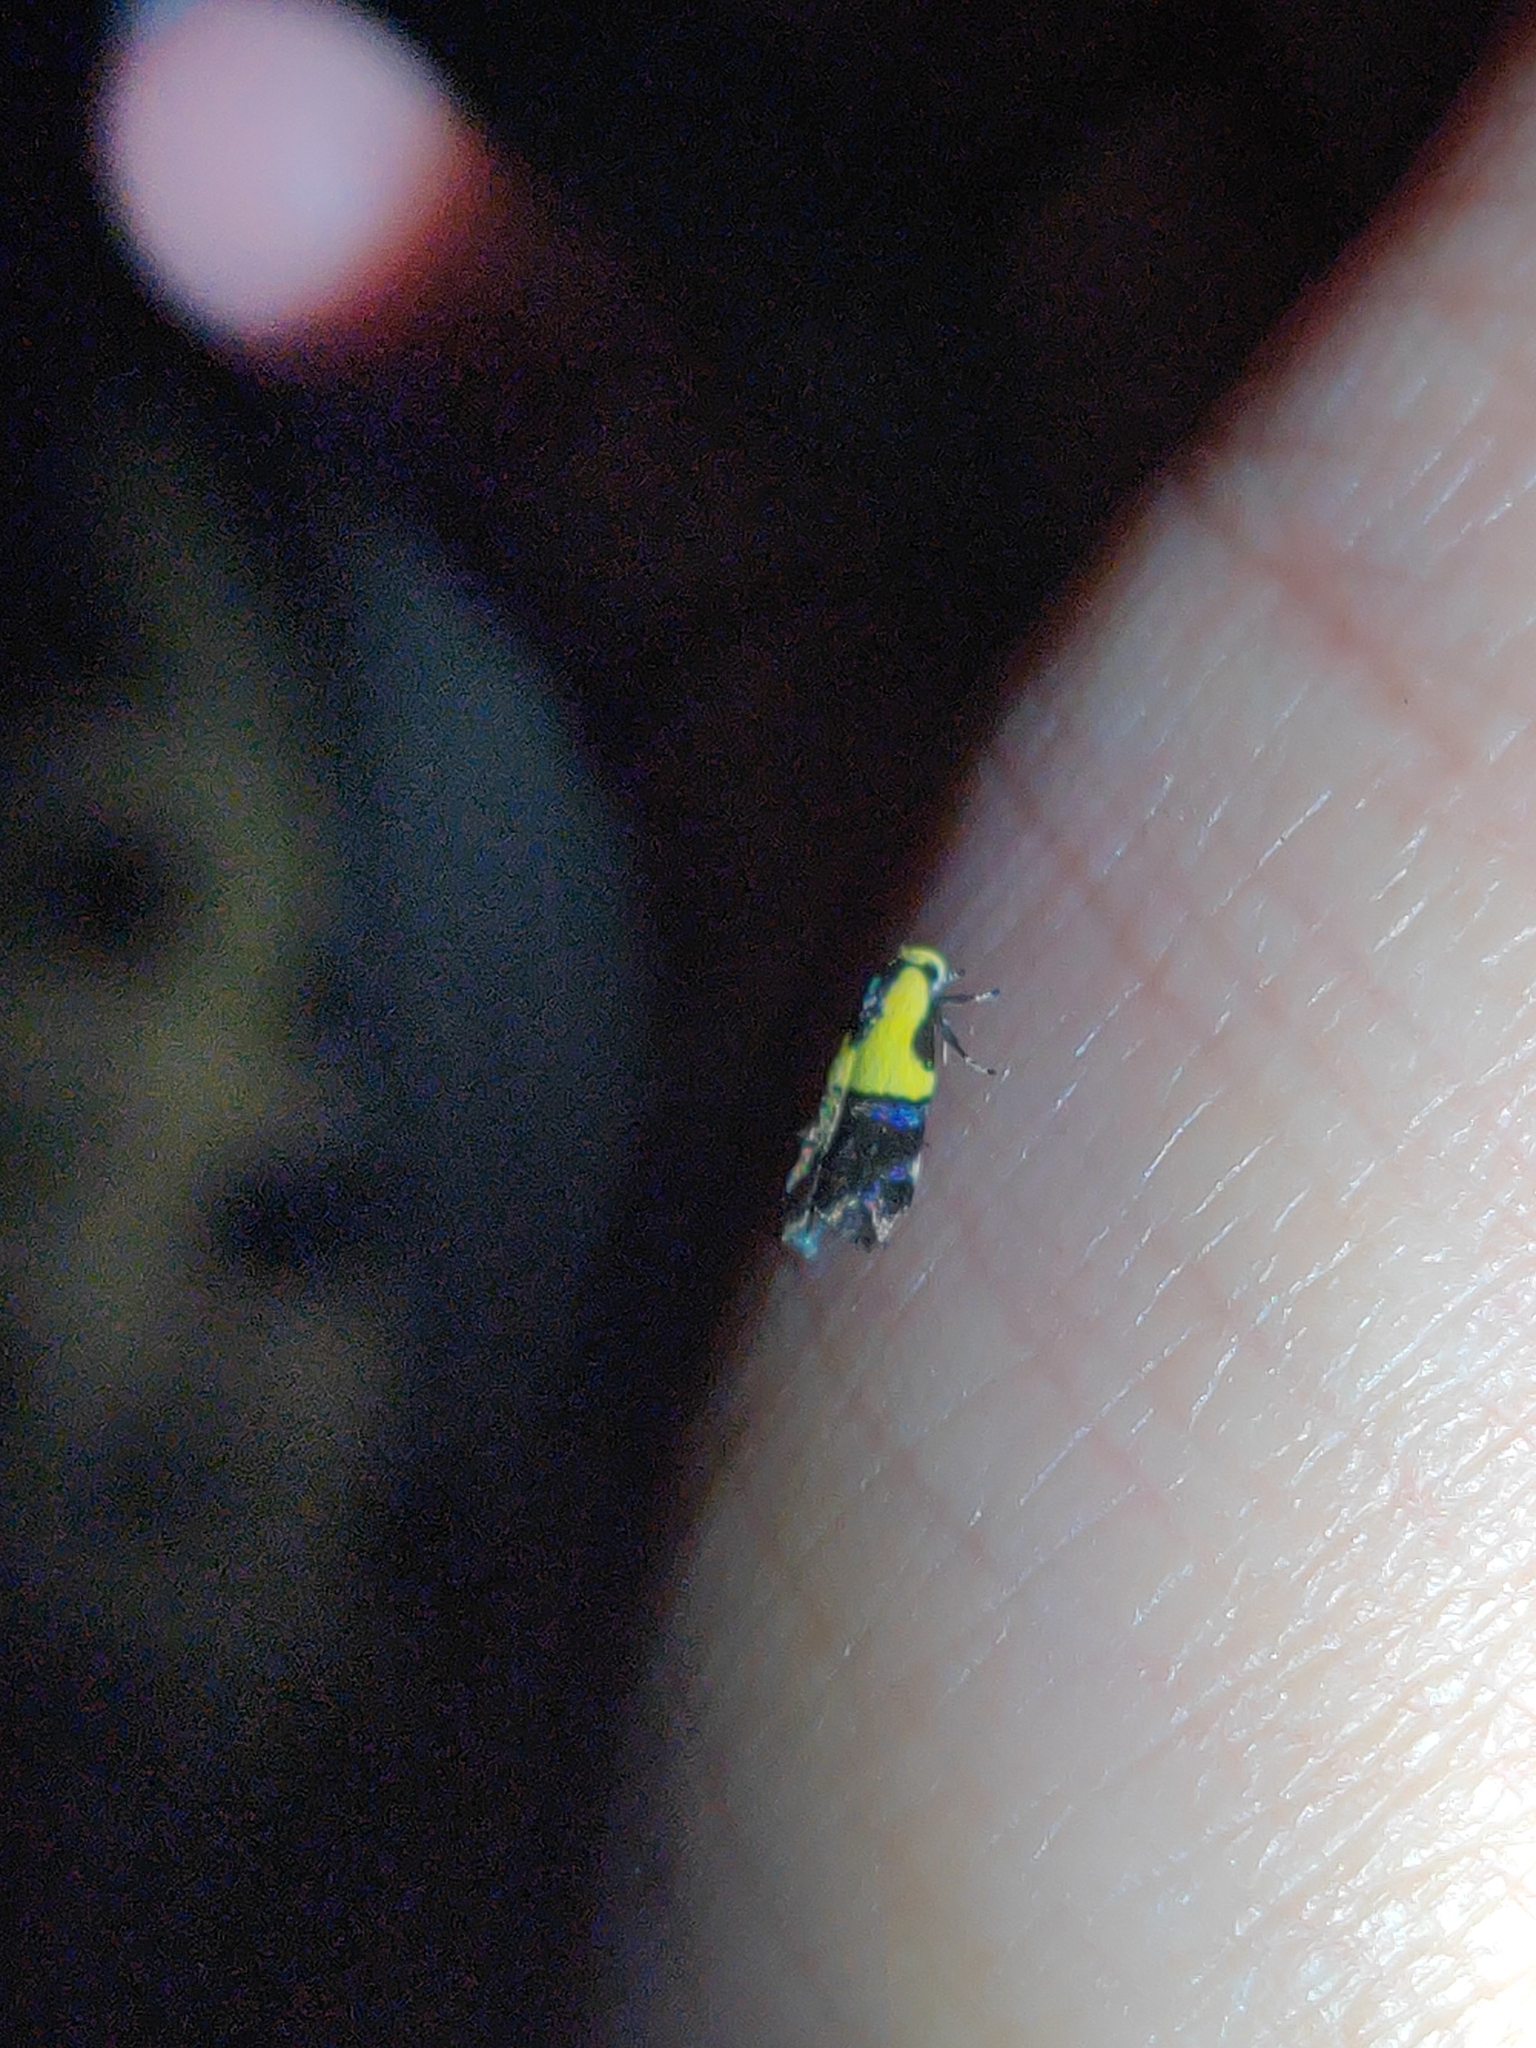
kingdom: Animalia
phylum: Arthropoda
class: Insecta
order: Lepidoptera
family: Depressariidae
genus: Rectiostoma
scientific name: Rectiostoma xanthobasis
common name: Yellow-vested moth
